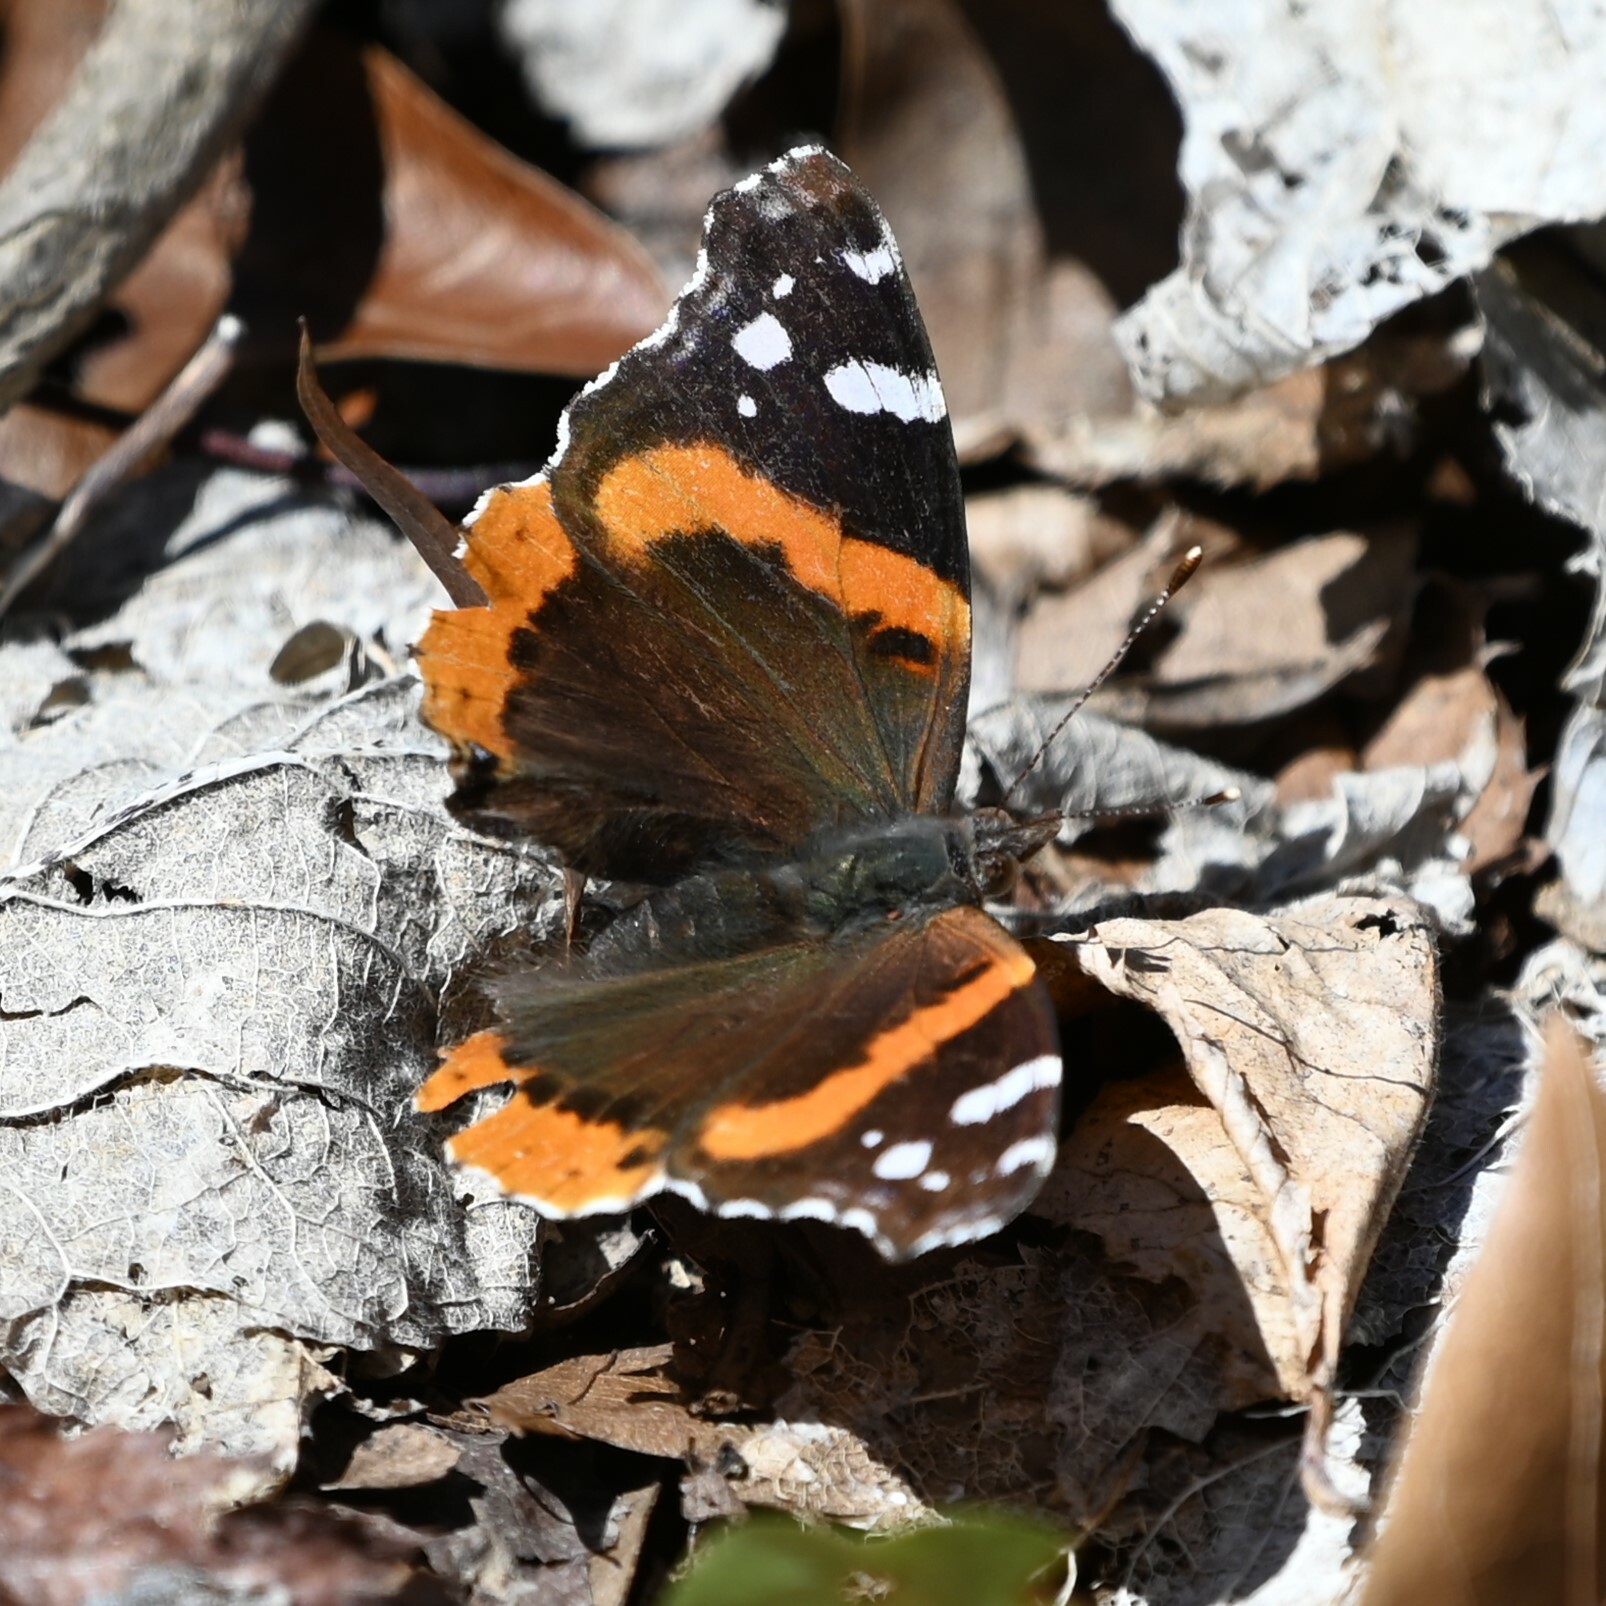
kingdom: Animalia
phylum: Arthropoda
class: Insecta
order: Lepidoptera
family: Nymphalidae
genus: Vanessa
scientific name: Vanessa atalanta
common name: Red admiral
